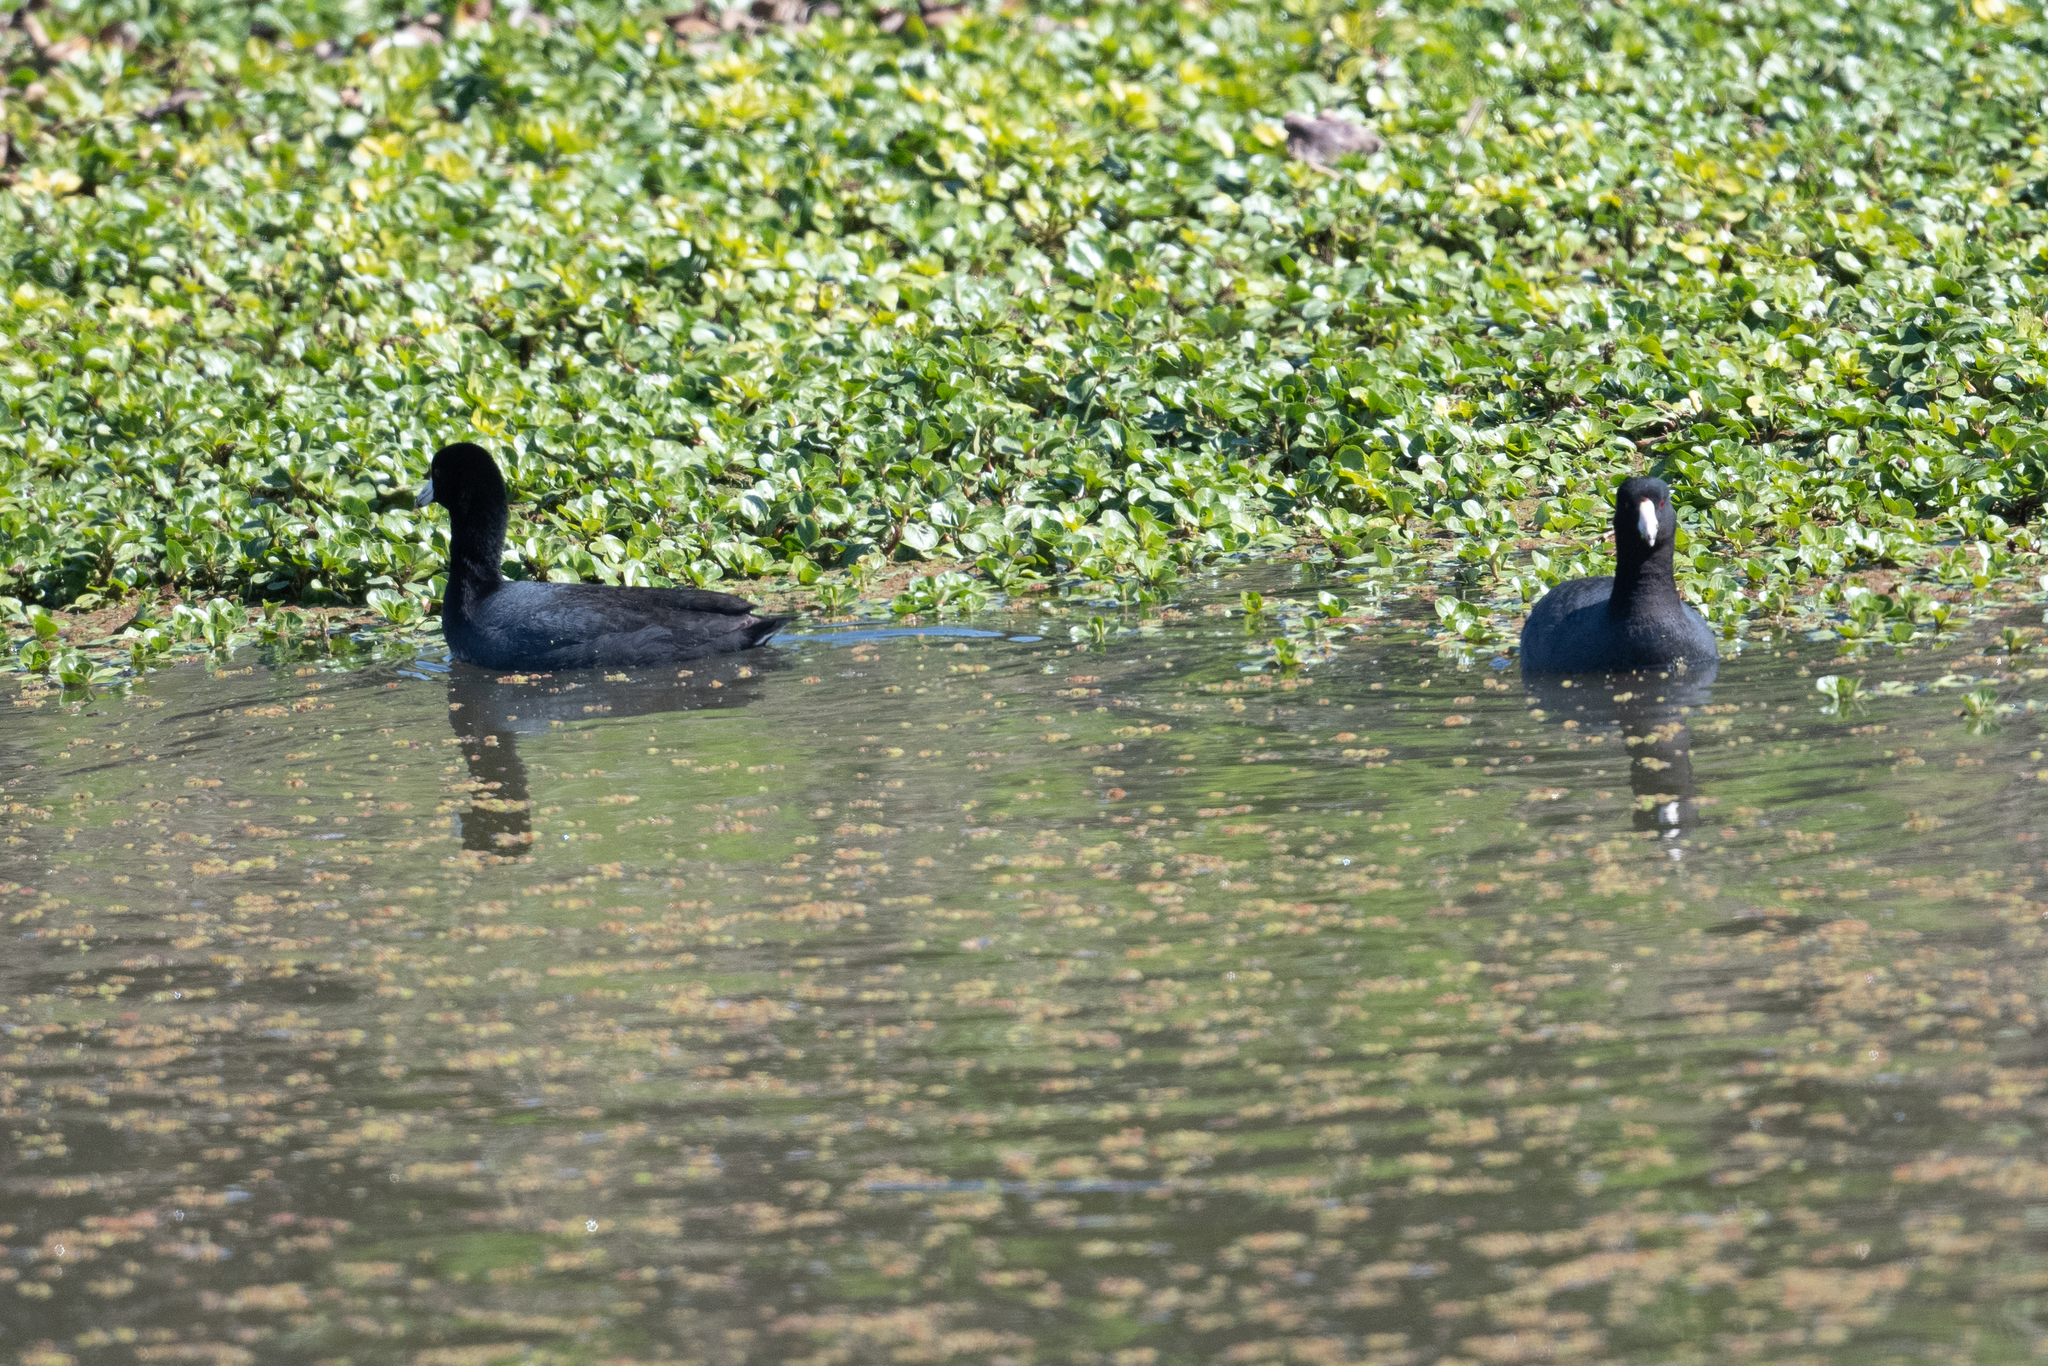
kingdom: Animalia
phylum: Chordata
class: Aves
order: Gruiformes
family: Rallidae
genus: Fulica
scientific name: Fulica americana
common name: American coot
